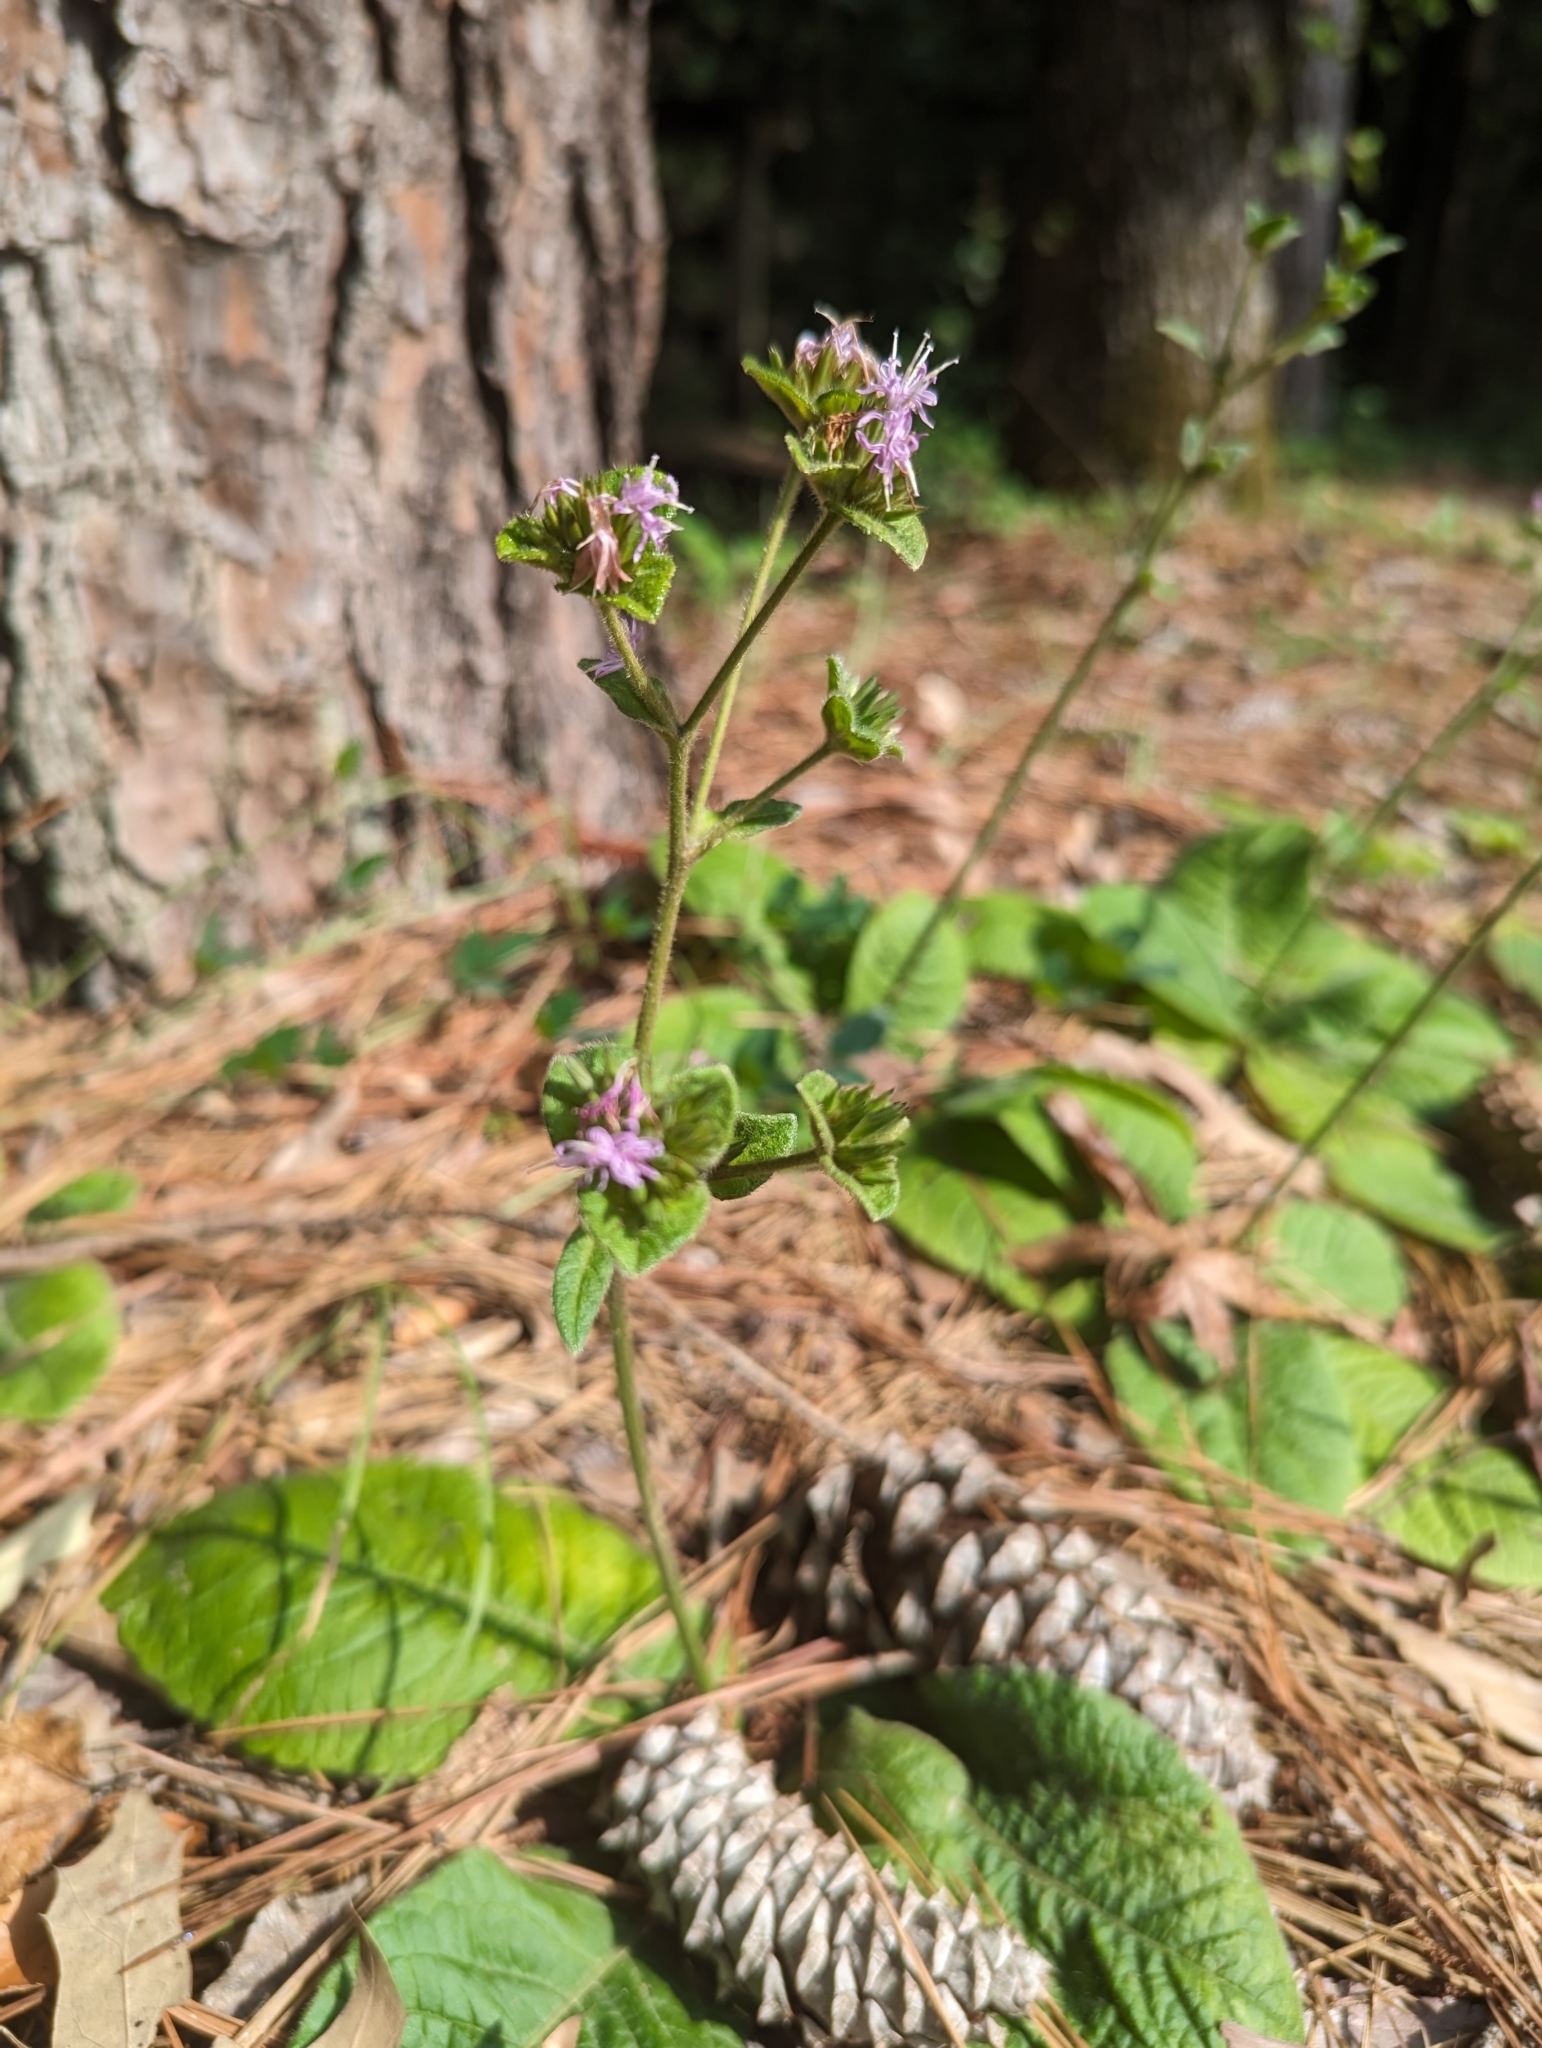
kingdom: Plantae
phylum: Tracheophyta
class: Magnoliopsida
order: Asterales
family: Asteraceae
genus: Elephantopus
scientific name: Elephantopus tomentosus
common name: Tobacco-weed
